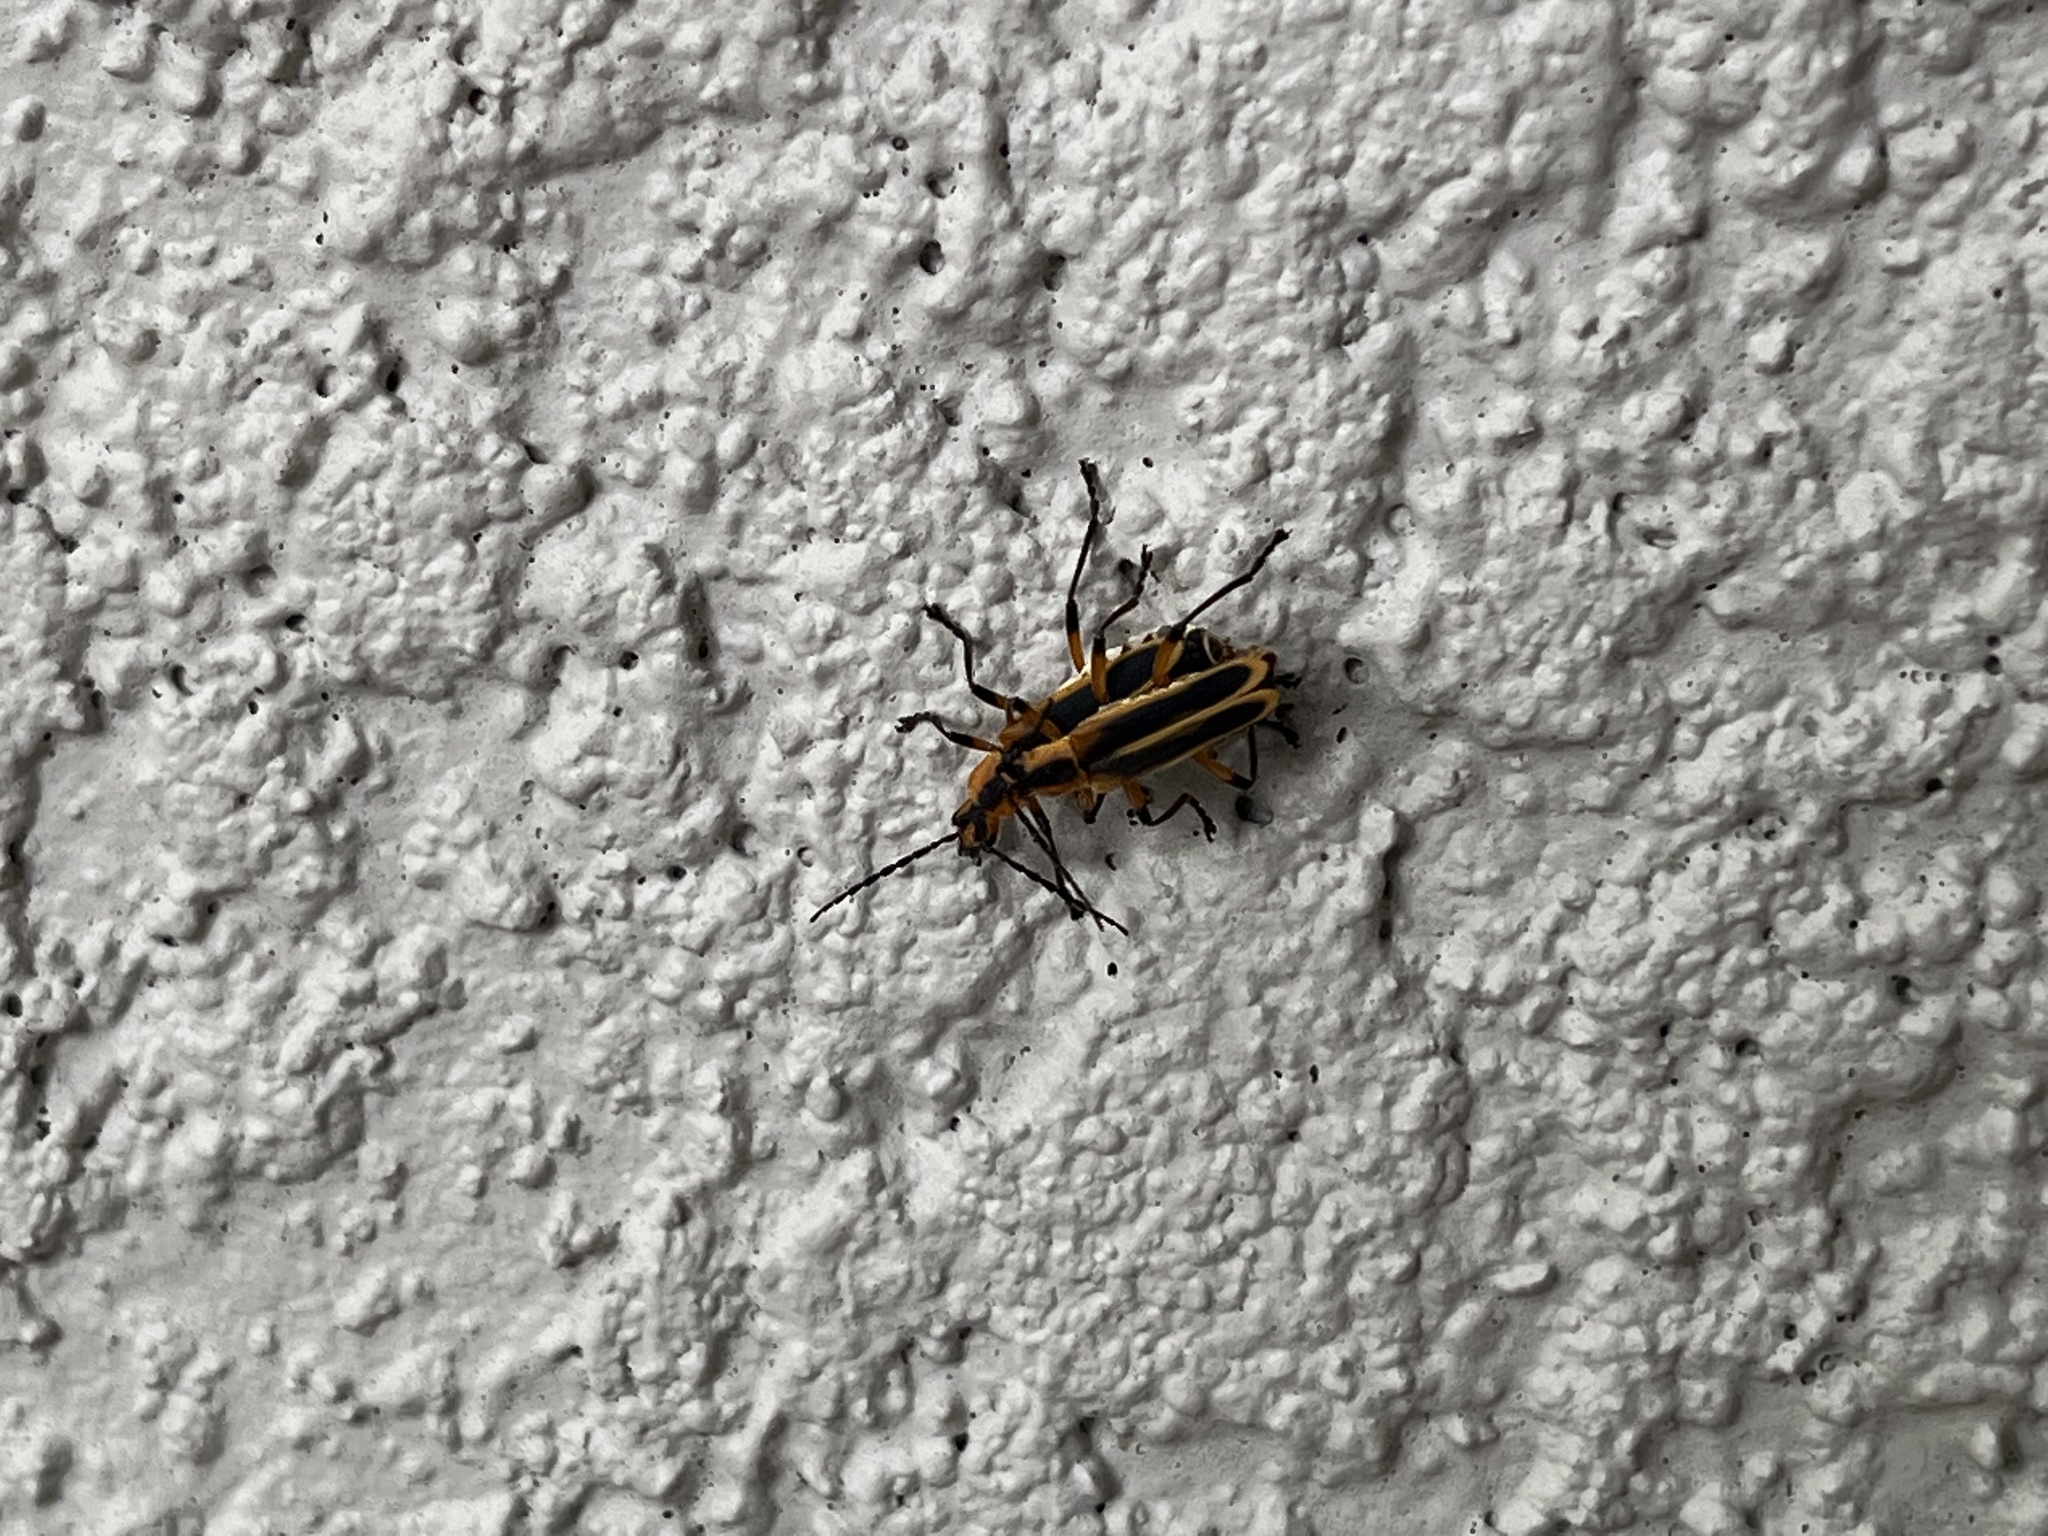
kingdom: Animalia
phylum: Arthropoda
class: Insecta
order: Coleoptera
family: Cantharidae
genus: Chauliognathus
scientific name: Chauliognathus marginatus
